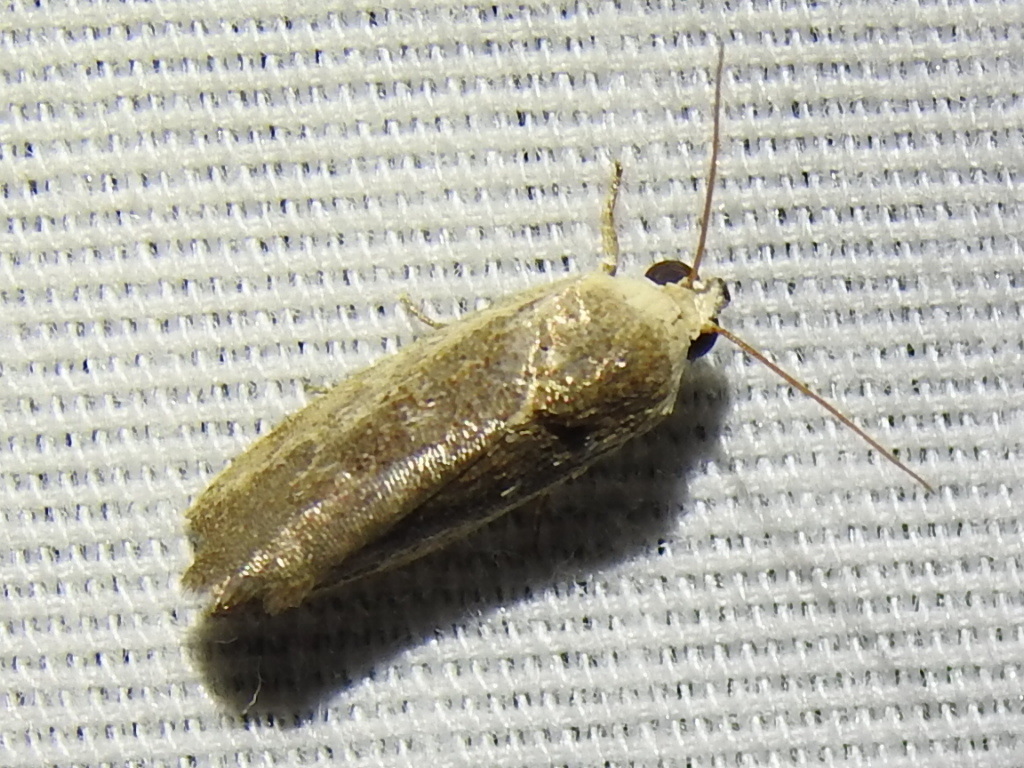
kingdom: Animalia
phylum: Arthropoda
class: Insecta
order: Lepidoptera
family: Noctuidae
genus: Acontia
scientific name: Acontia fasciatella
